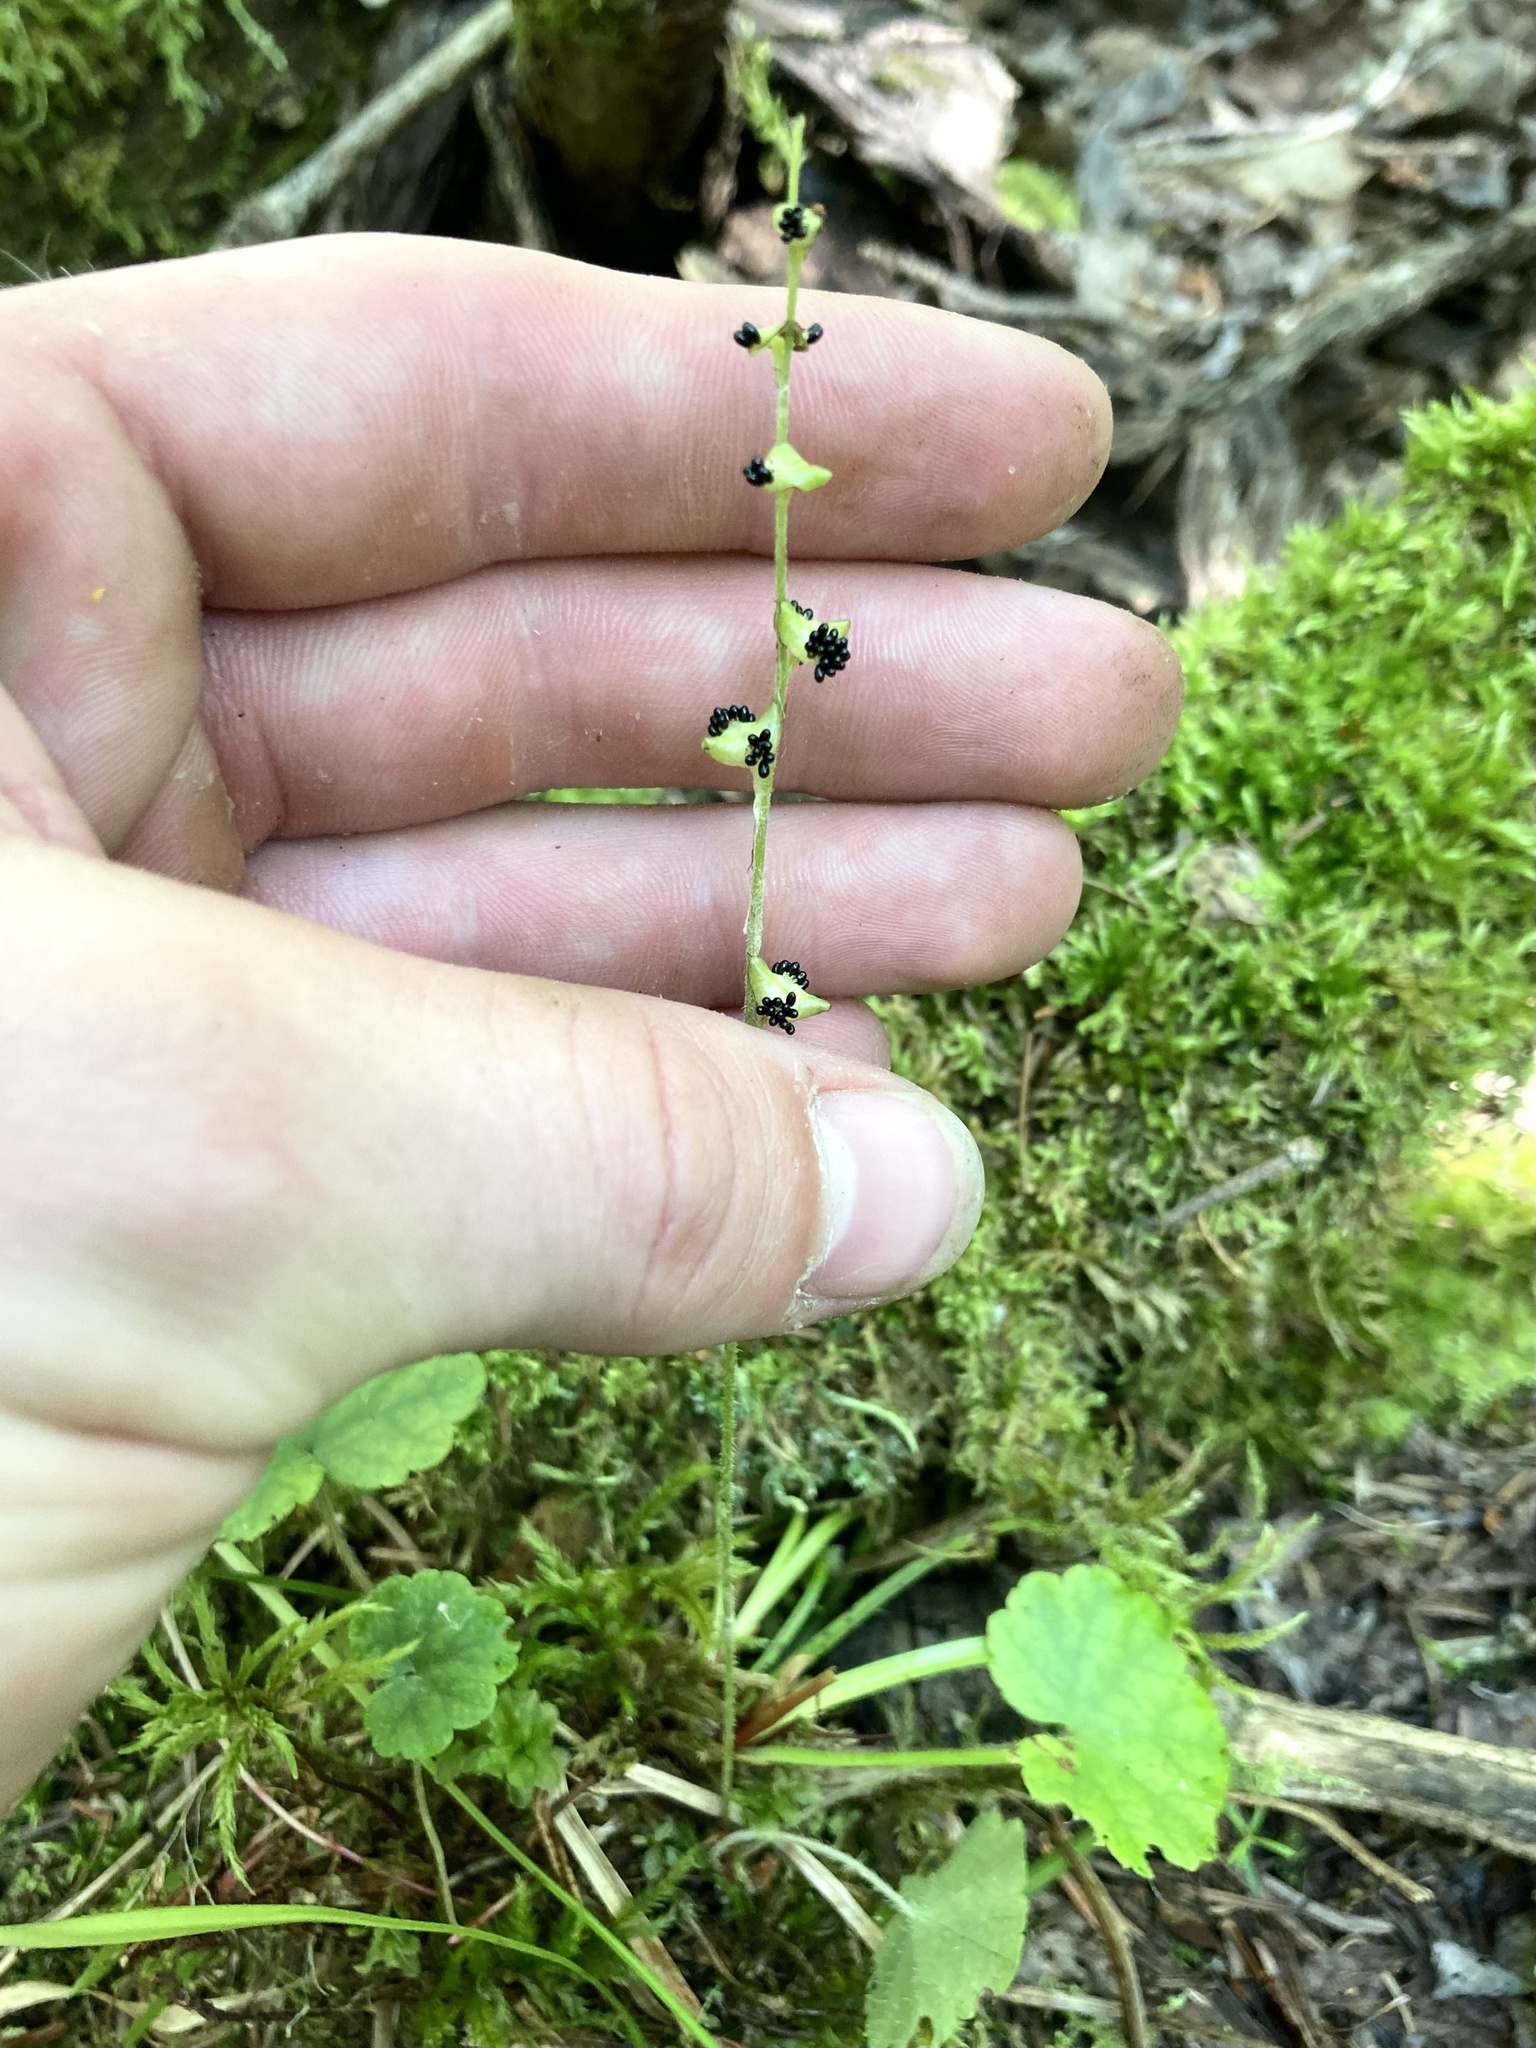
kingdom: Plantae
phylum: Tracheophyta
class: Magnoliopsida
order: Saxifragales
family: Saxifragaceae
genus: Mitella
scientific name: Mitella nuda
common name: Bare-stemmed bishop's-cap
